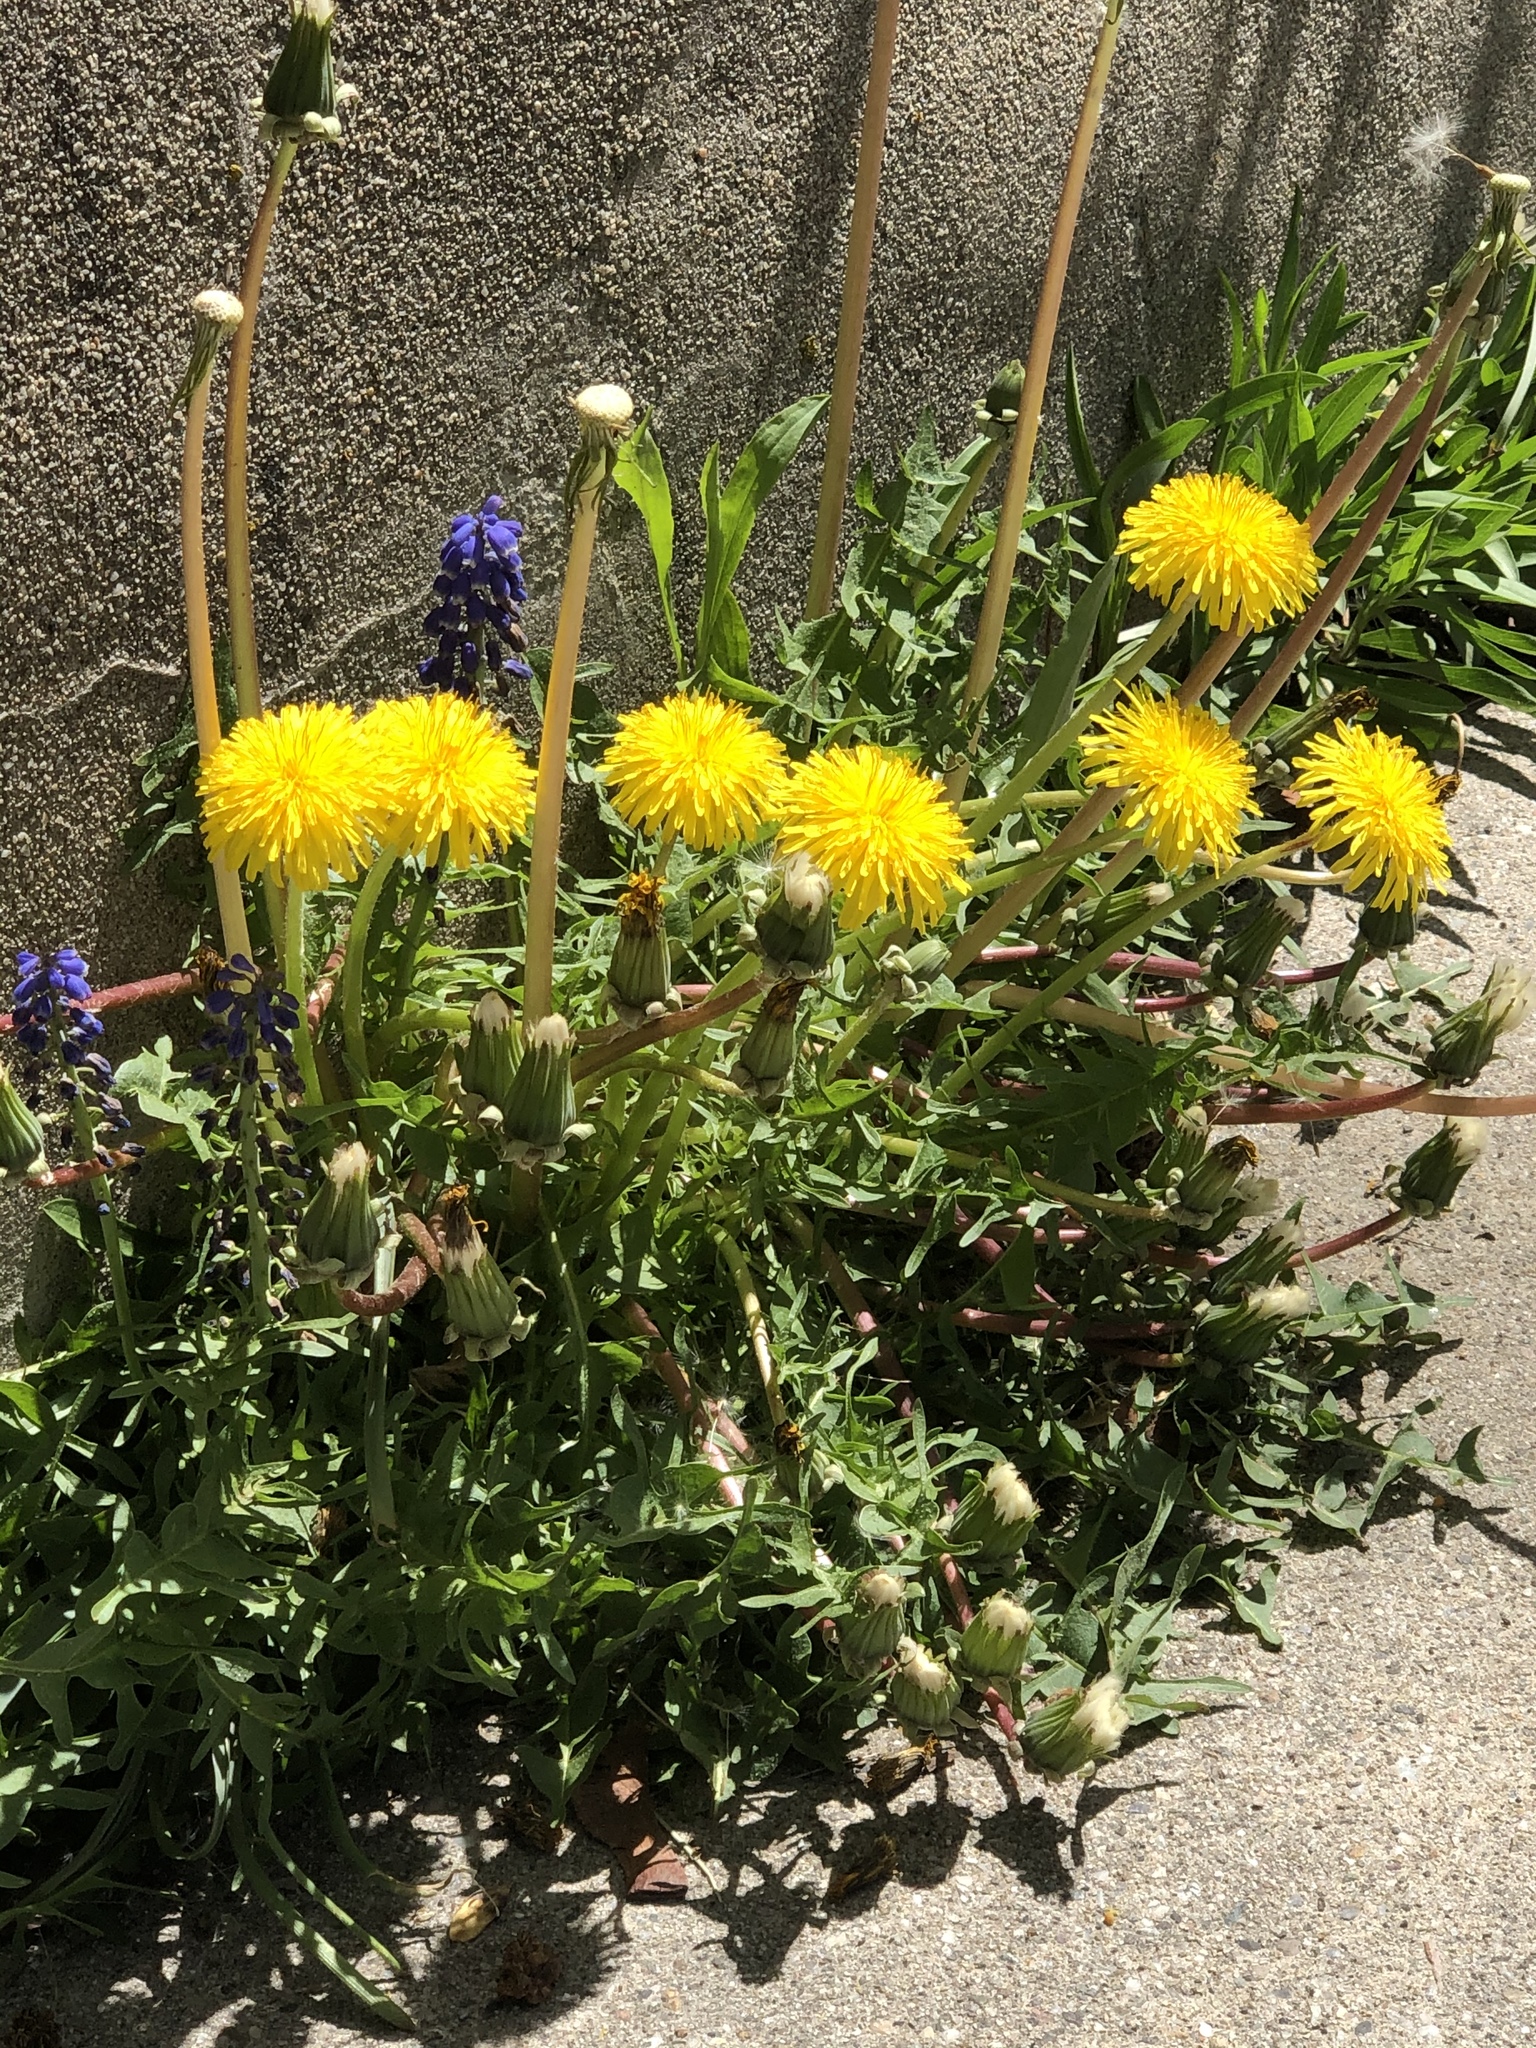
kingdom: Plantae
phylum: Tracheophyta
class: Magnoliopsida
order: Asterales
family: Asteraceae
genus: Taraxacum
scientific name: Taraxacum officinale
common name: Common dandelion
